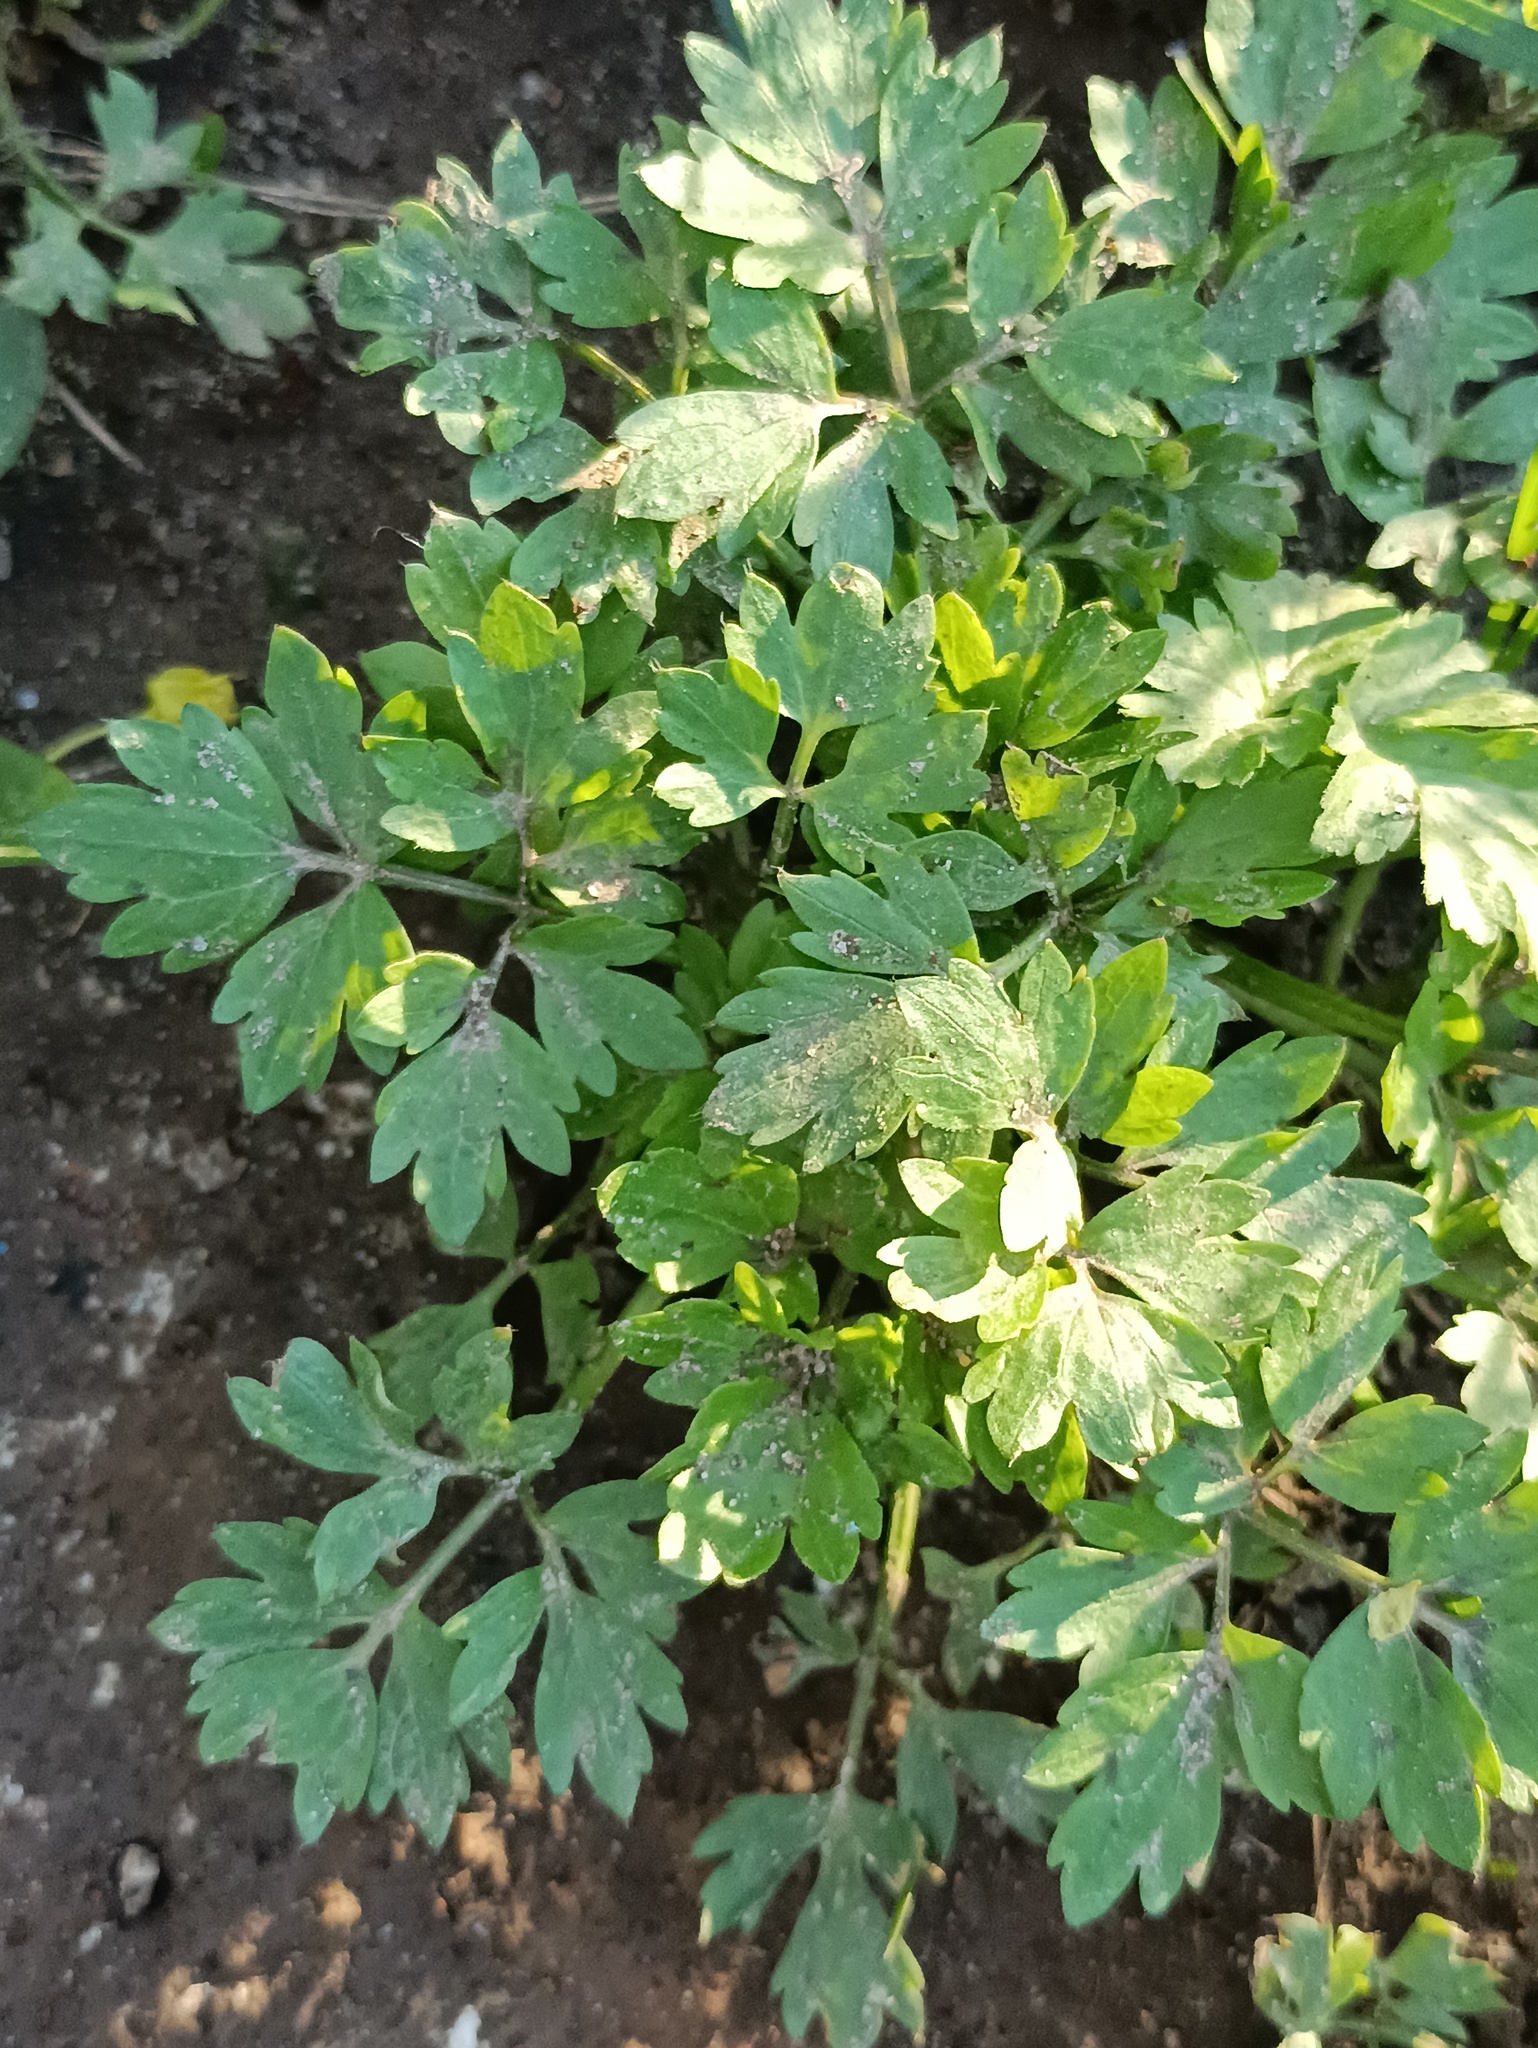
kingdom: Plantae
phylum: Tracheophyta
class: Magnoliopsida
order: Ranunculales
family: Ranunculaceae
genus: Ranunculus
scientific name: Ranunculus repens
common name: Creeping buttercup
